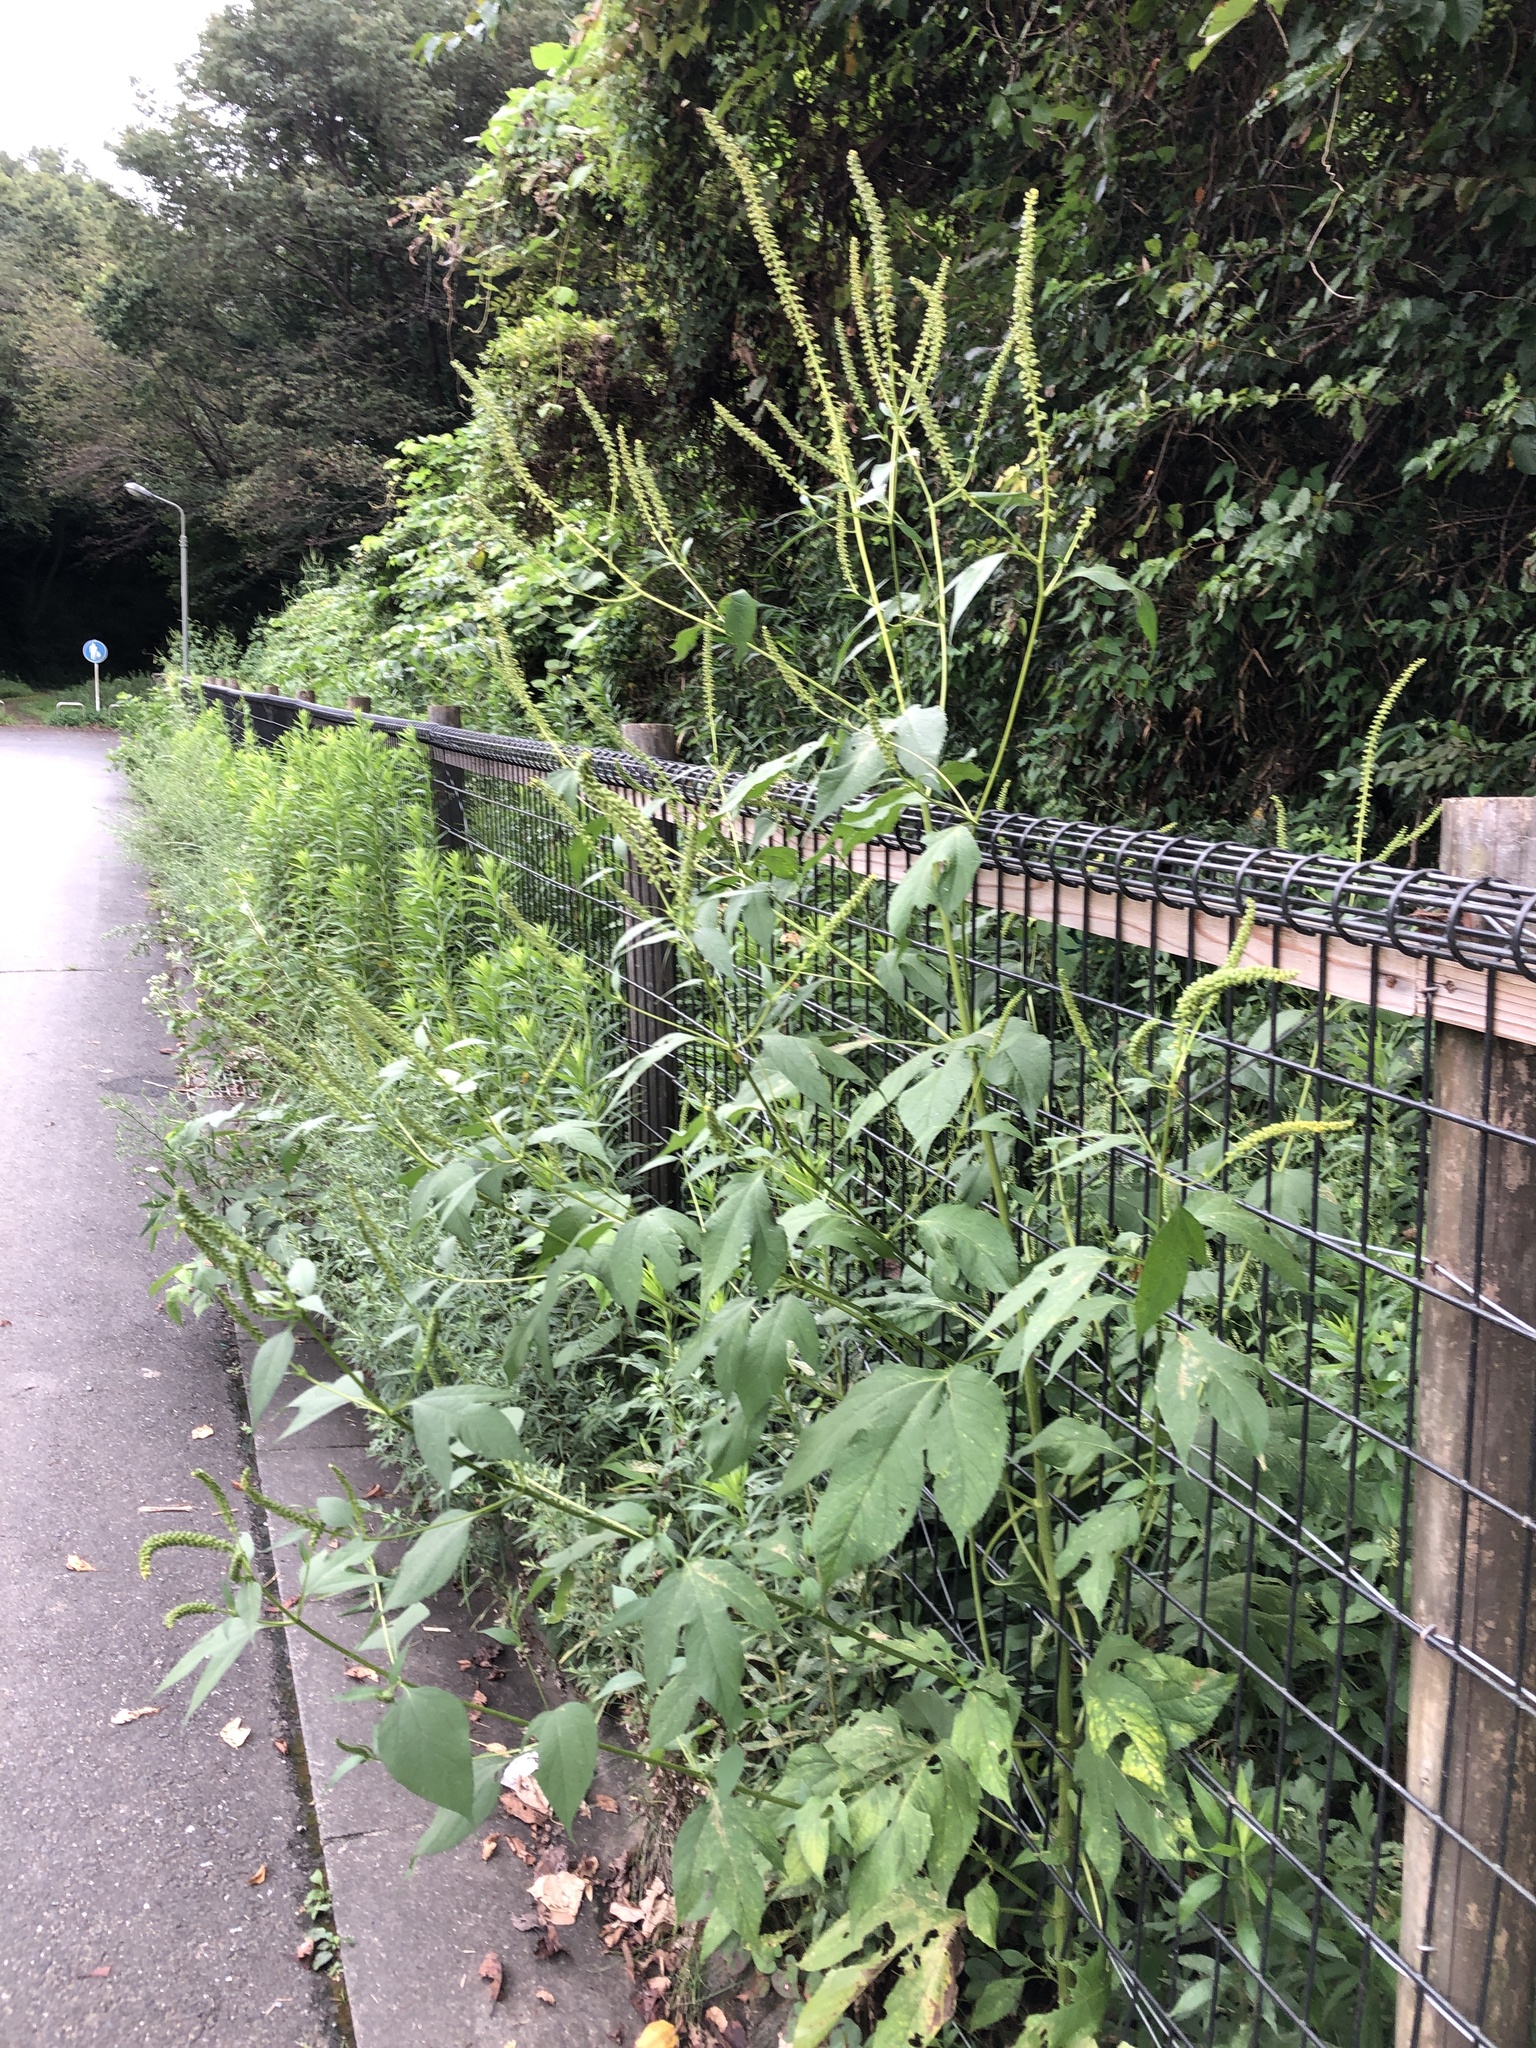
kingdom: Plantae
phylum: Tracheophyta
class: Magnoliopsida
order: Asterales
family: Asteraceae
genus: Ambrosia
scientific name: Ambrosia trifida
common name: Giant ragweed
